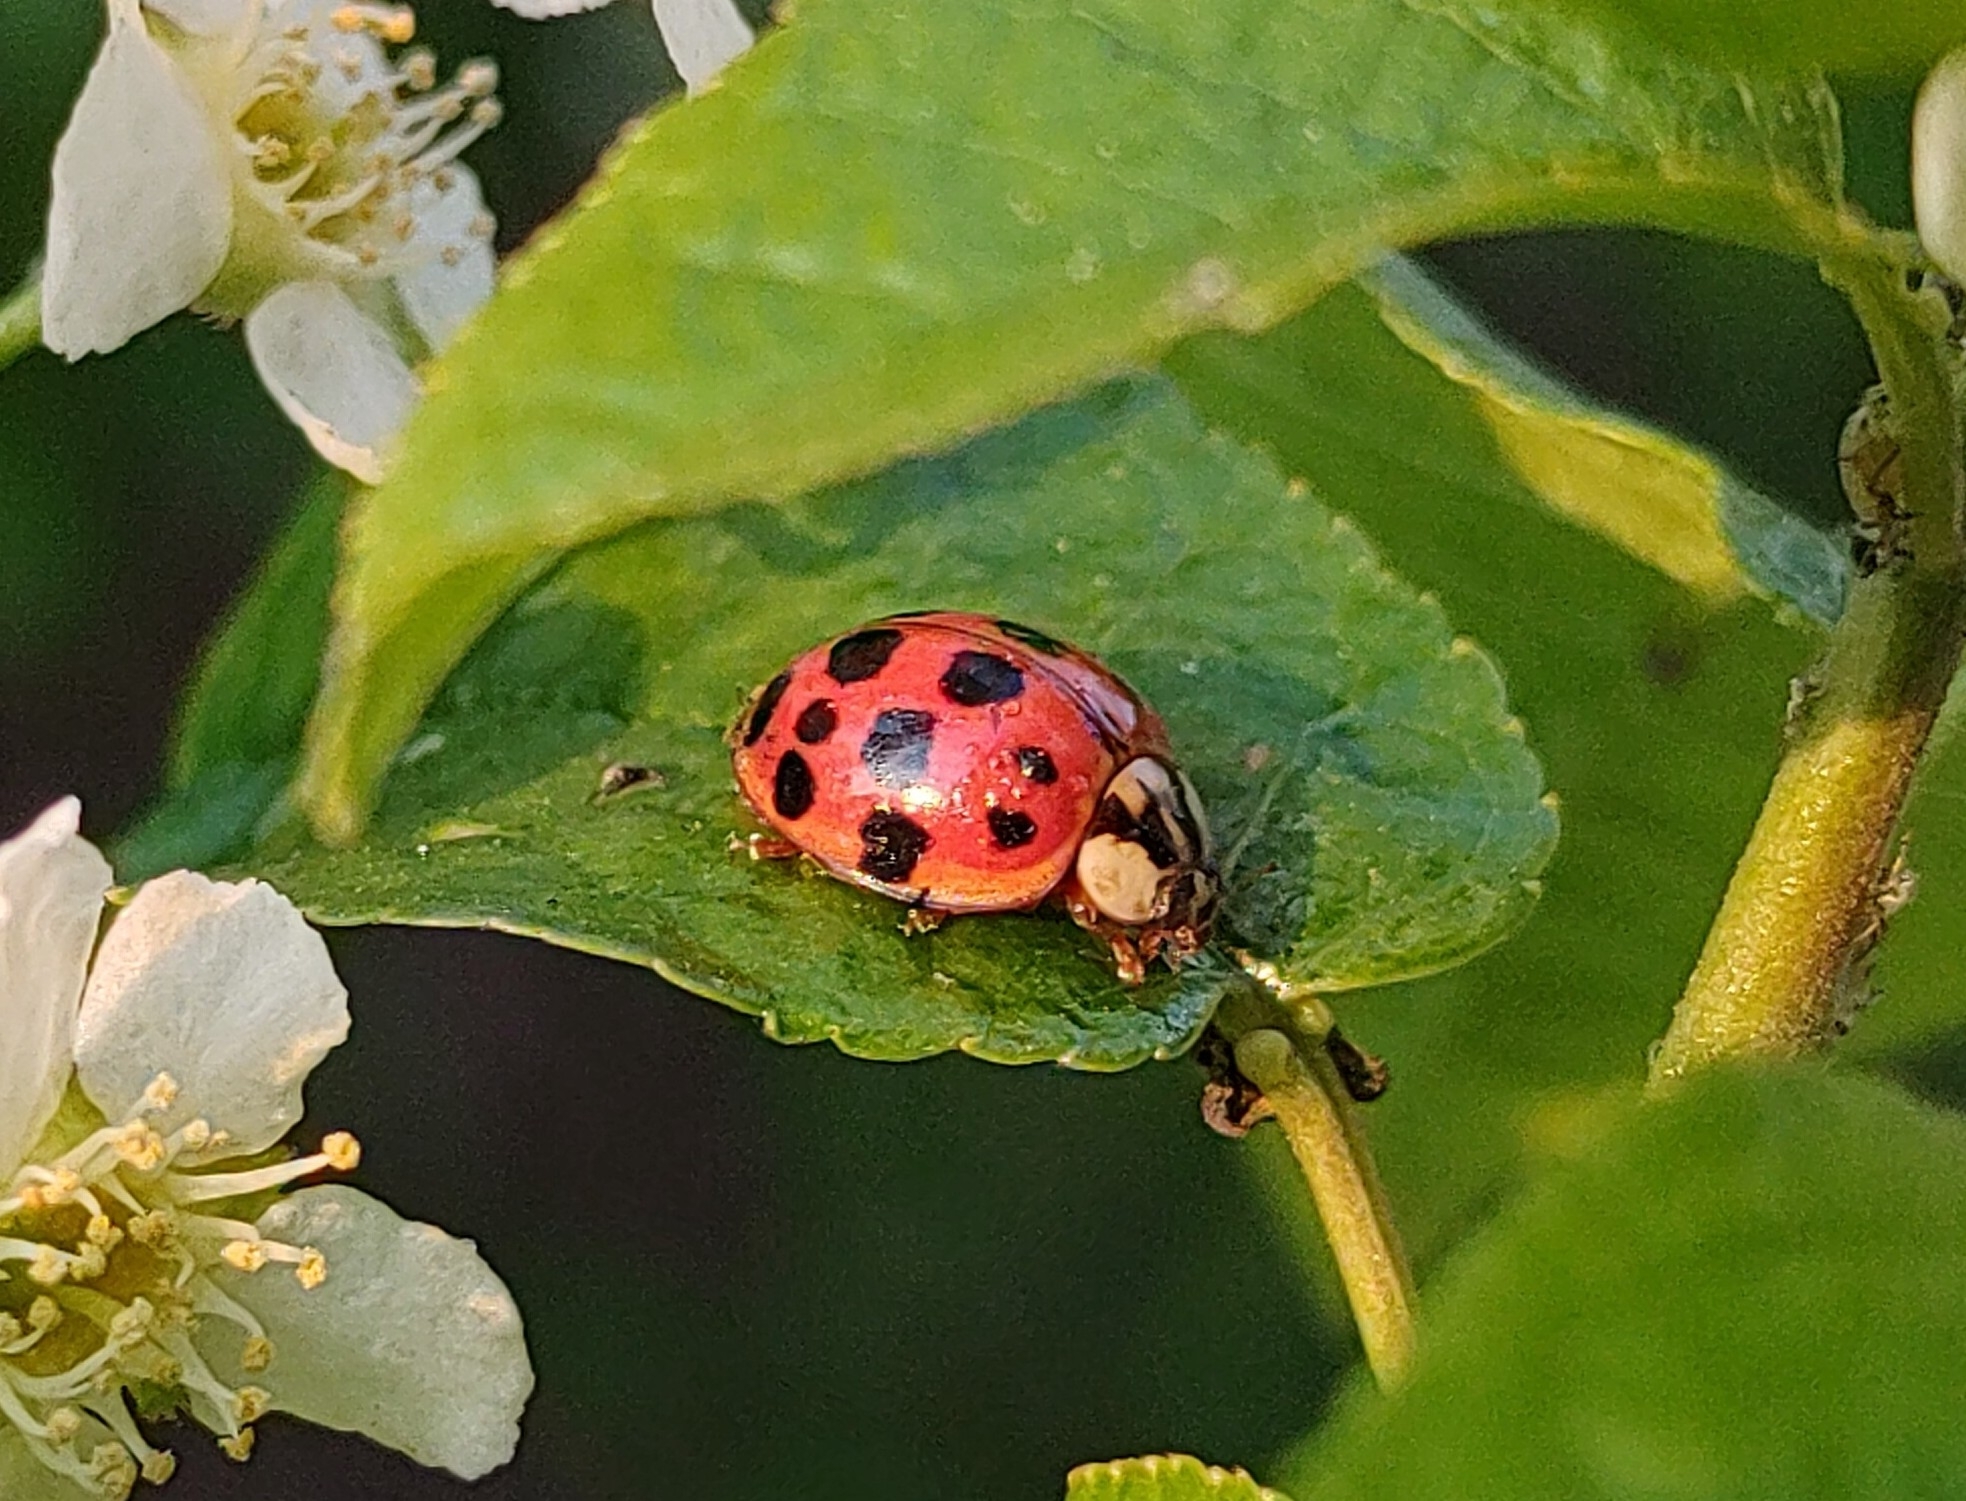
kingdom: Animalia
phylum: Arthropoda
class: Insecta
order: Coleoptera
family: Coccinellidae
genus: Harmonia
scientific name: Harmonia axyridis
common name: Harlequin ladybird
